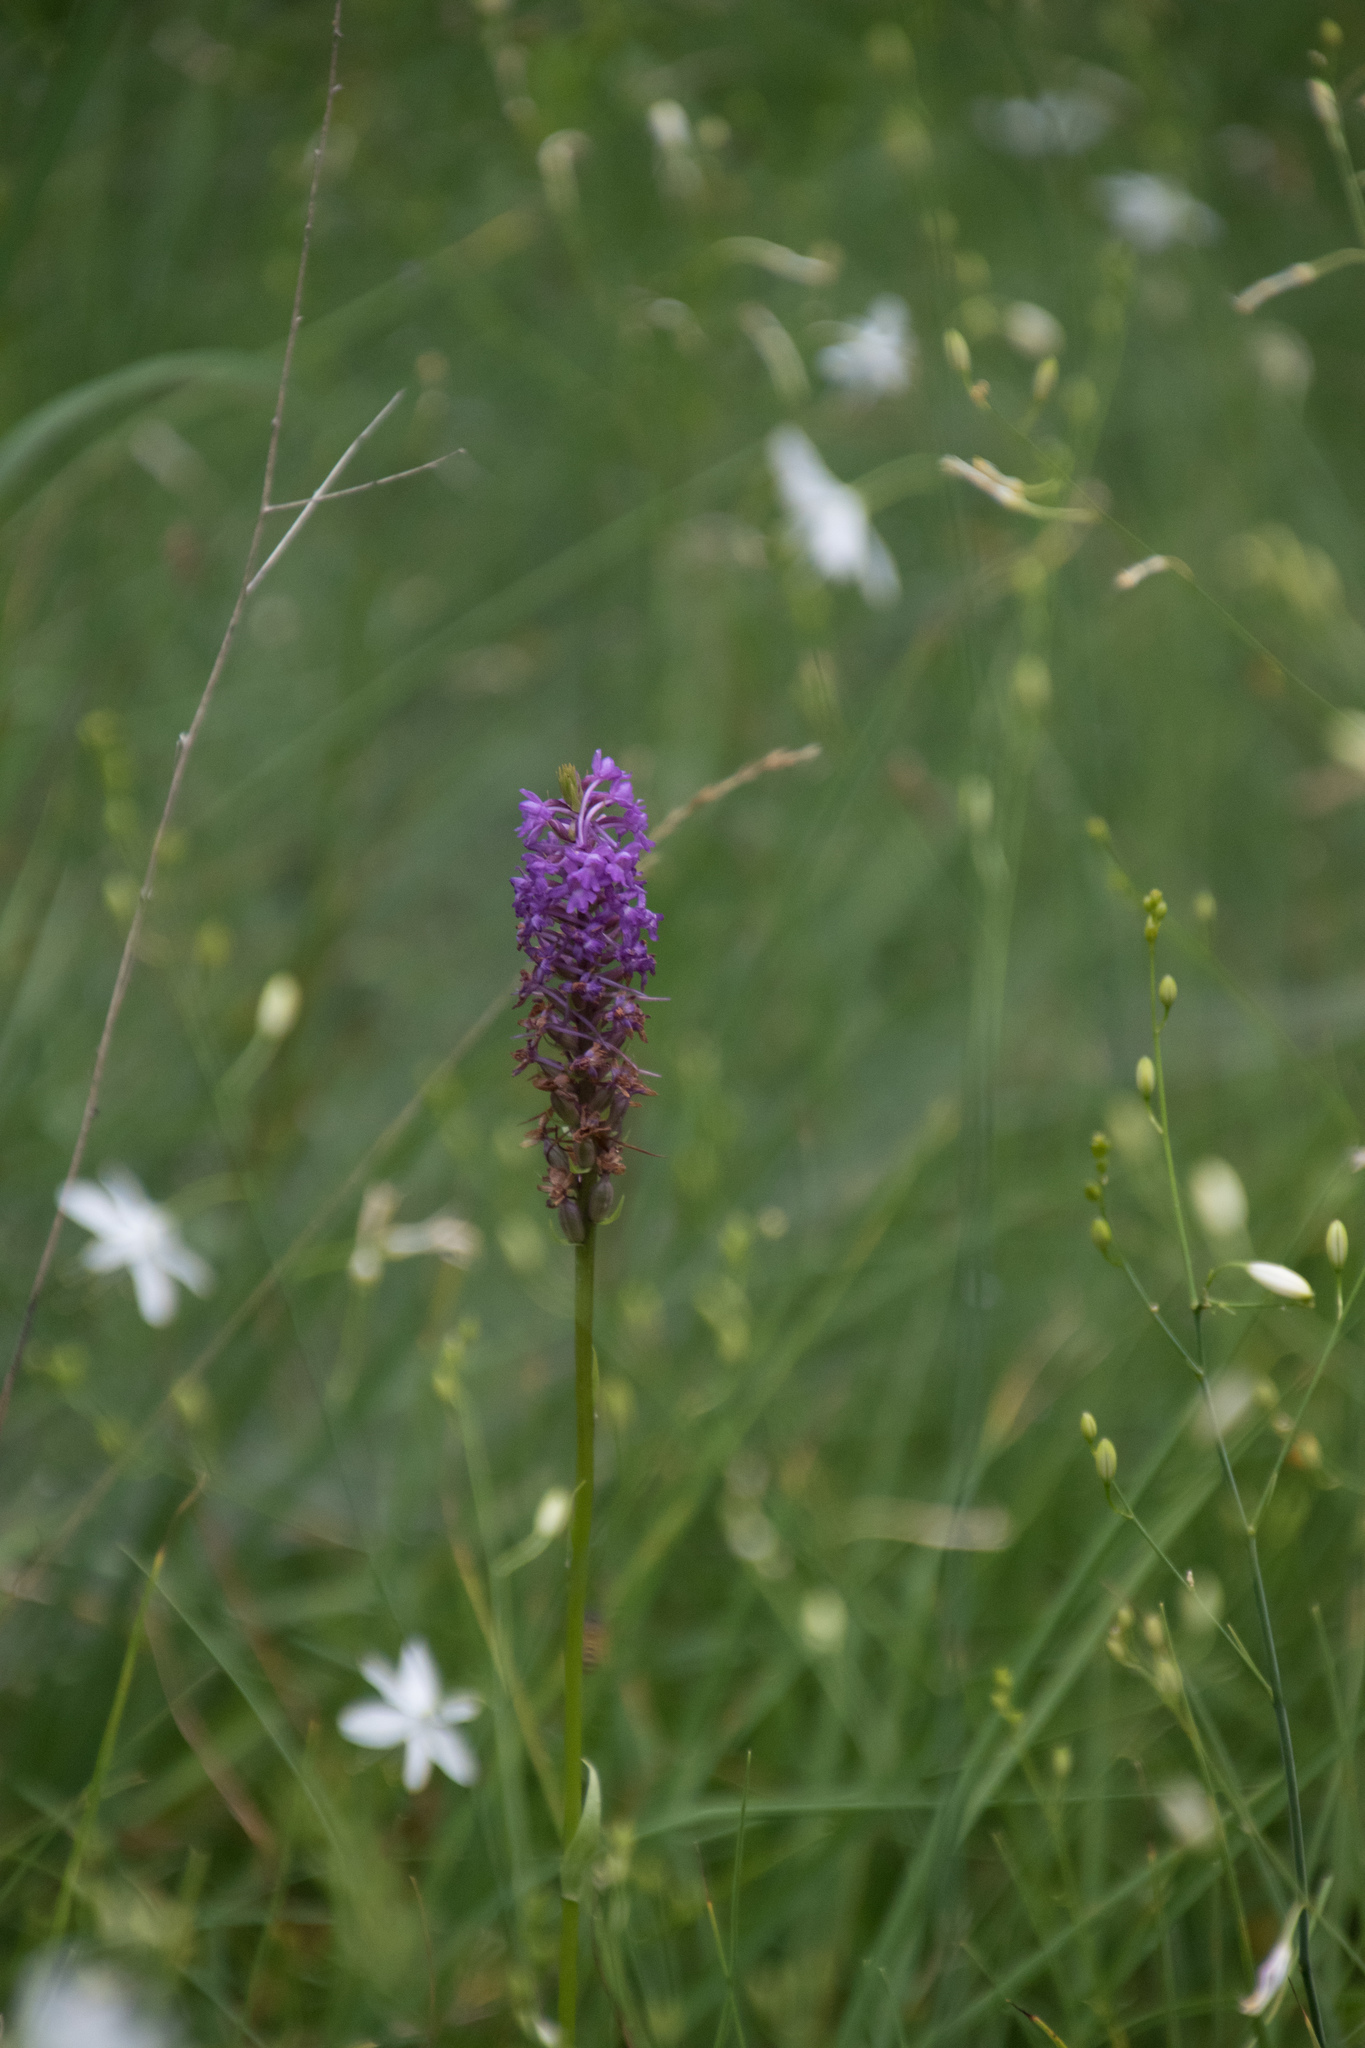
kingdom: Plantae
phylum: Tracheophyta
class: Liliopsida
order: Asparagales
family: Orchidaceae
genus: Gymnadenia
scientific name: Gymnadenia conopsea
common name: Fragrant orchid
